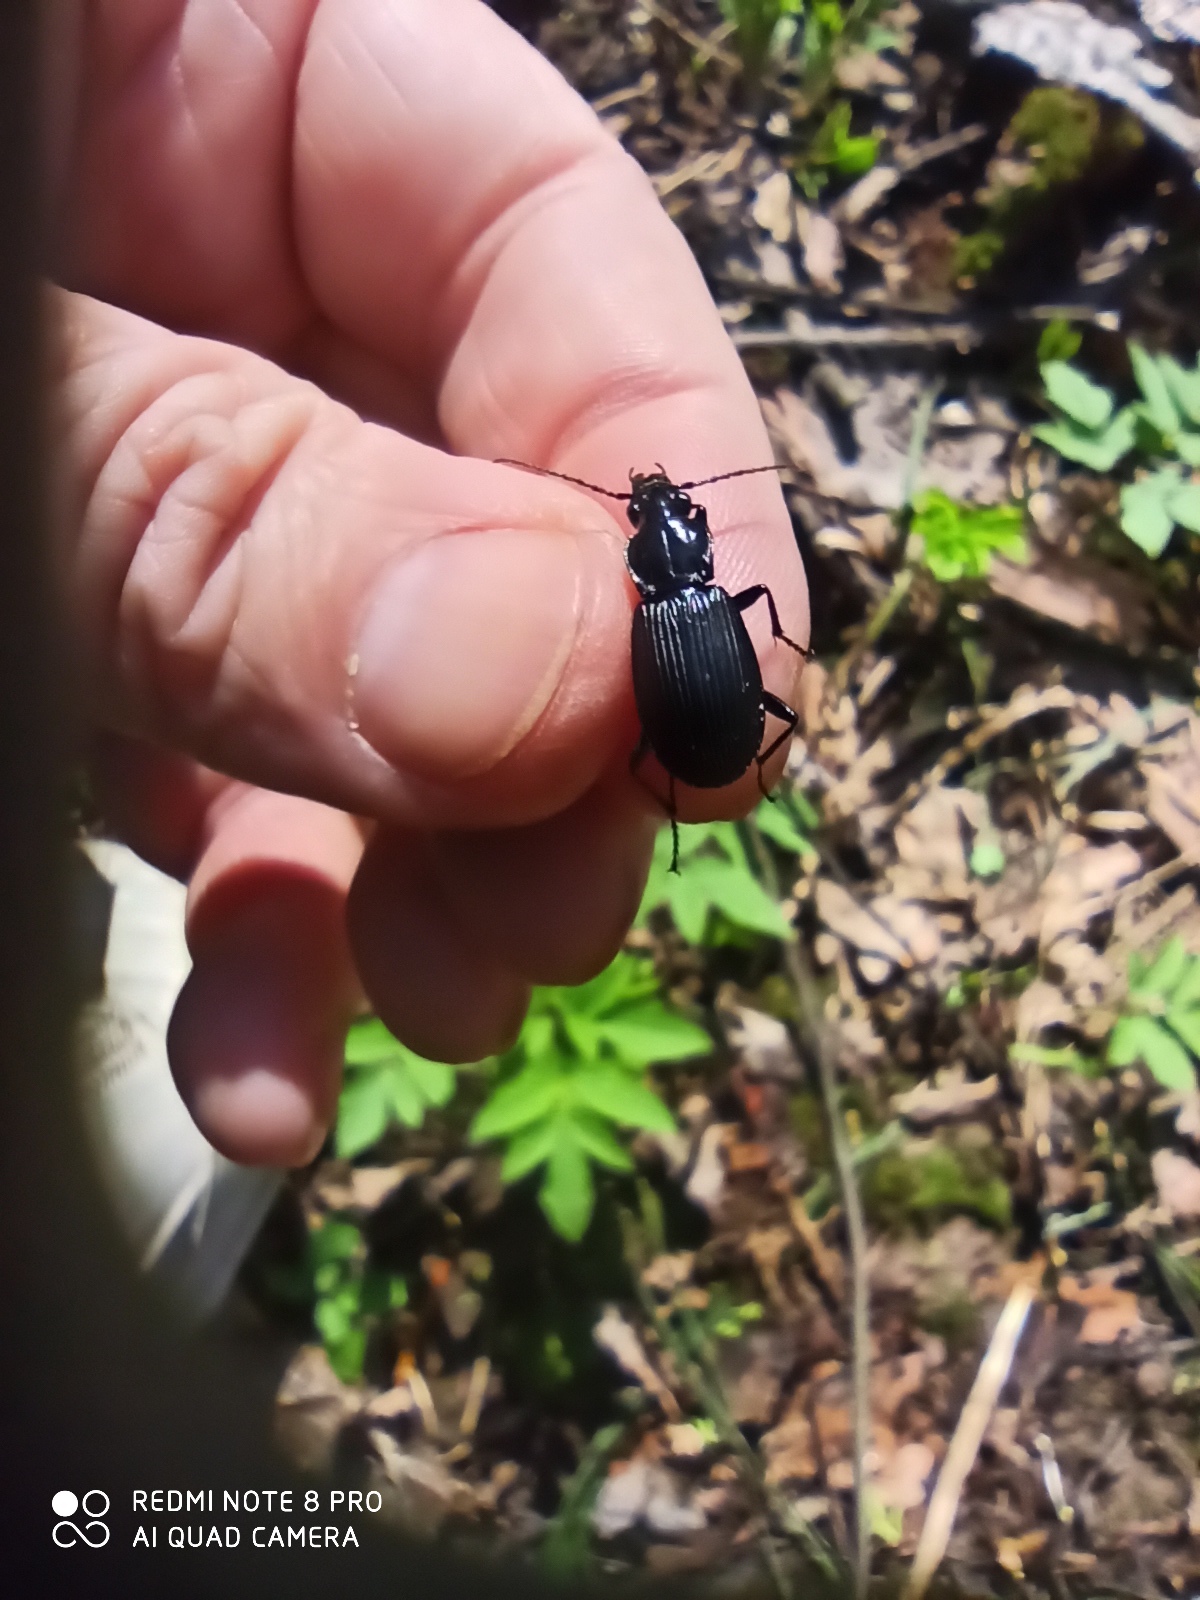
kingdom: Animalia
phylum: Arthropoda
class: Insecta
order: Coleoptera
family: Carabidae
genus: Pterostichus
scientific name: Pterostichus niger
